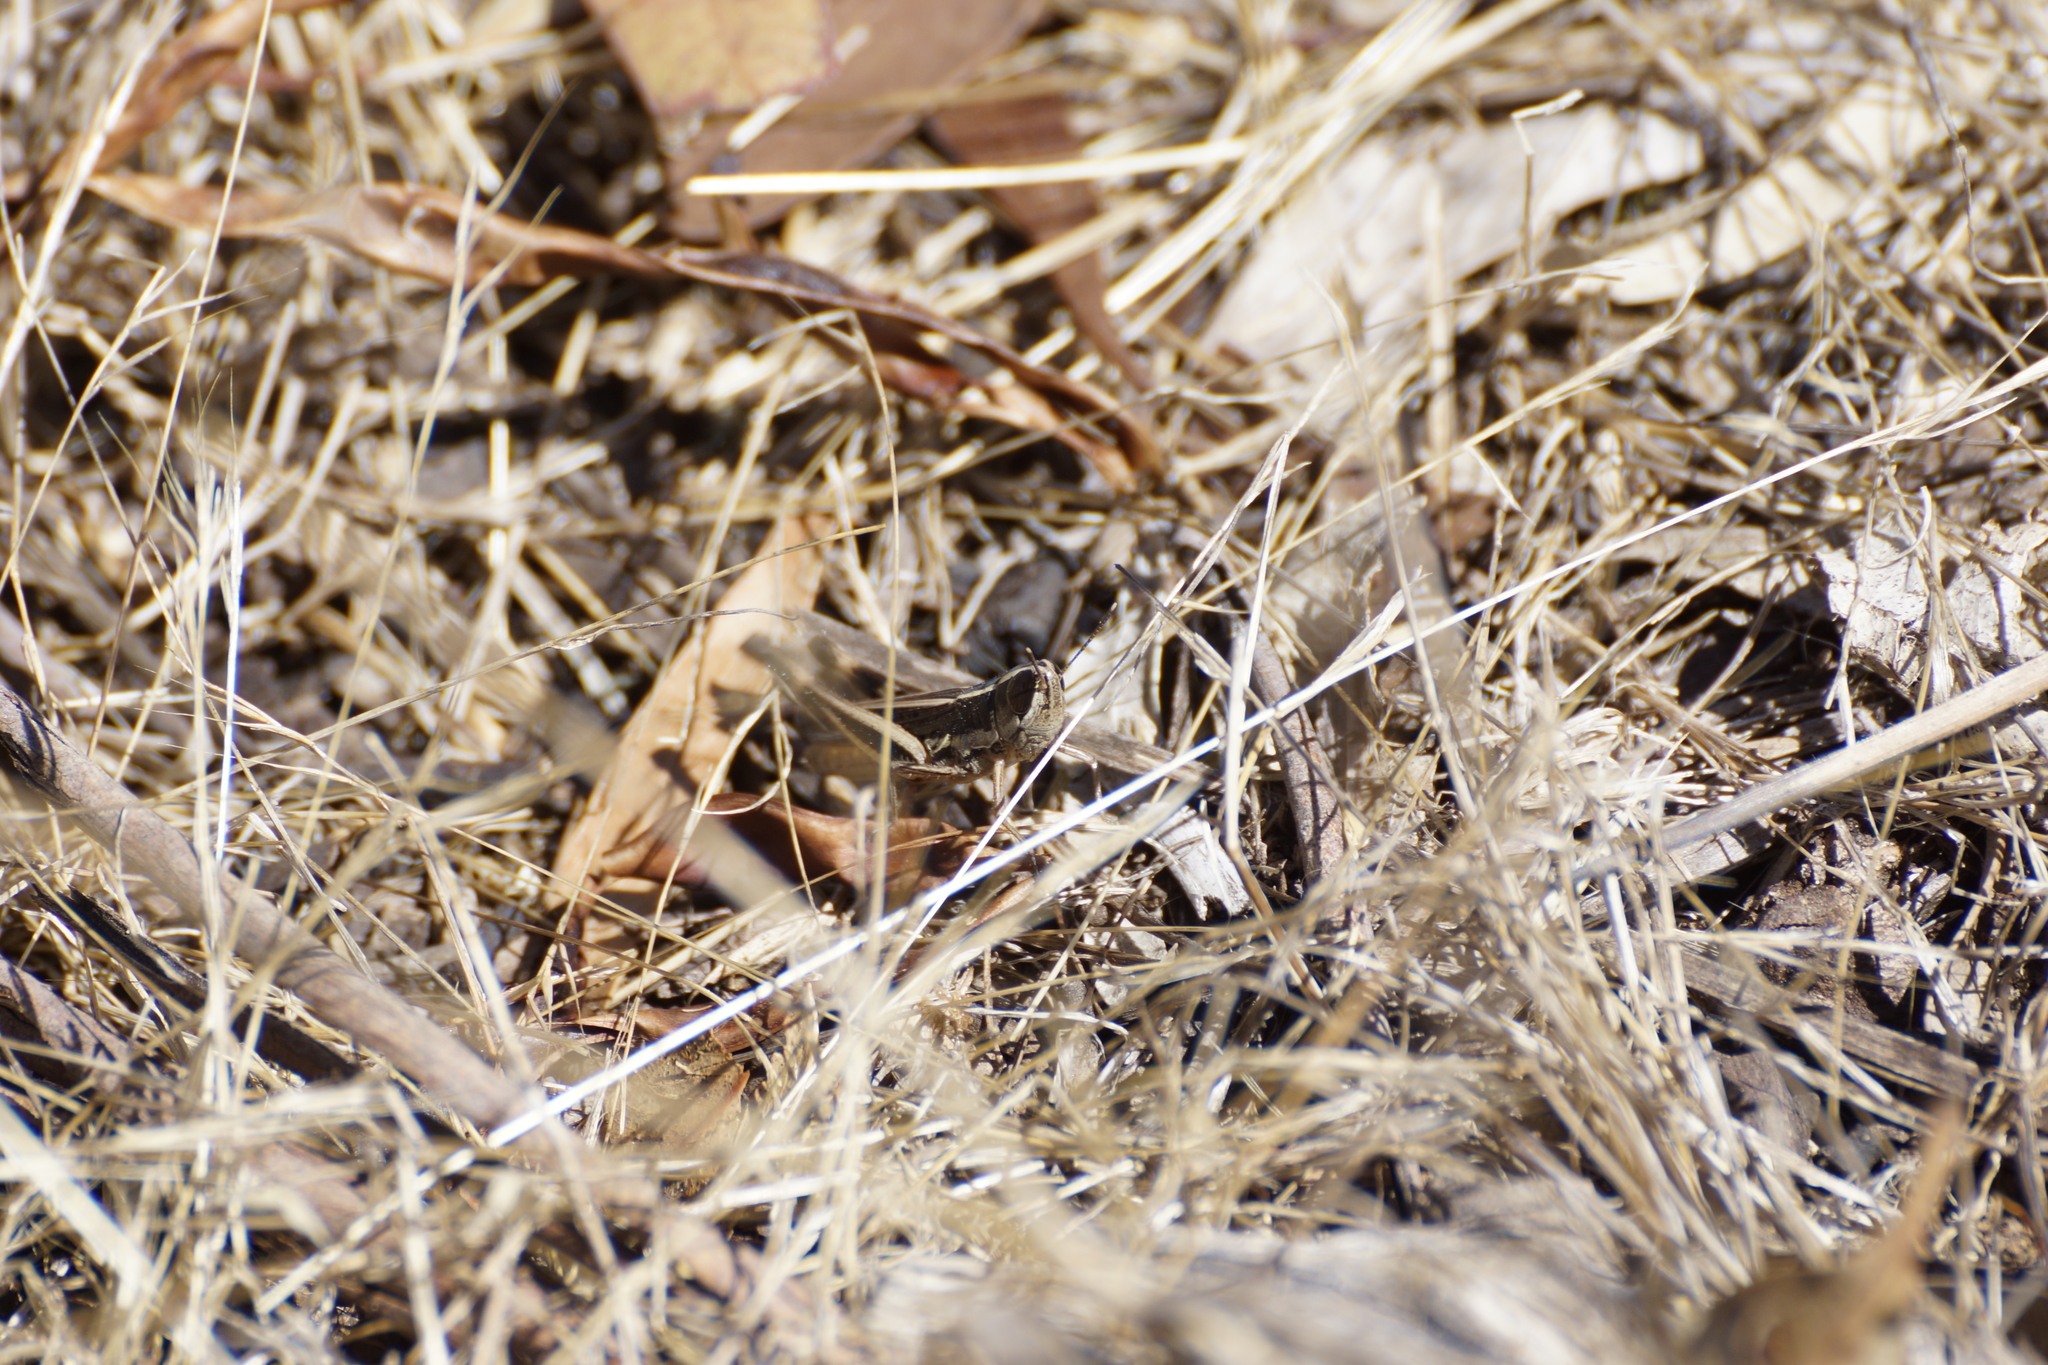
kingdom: Animalia
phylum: Arthropoda
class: Insecta
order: Orthoptera
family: Acrididae
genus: Macrotona
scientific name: Macrotona securiformis
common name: Inland macrotona
